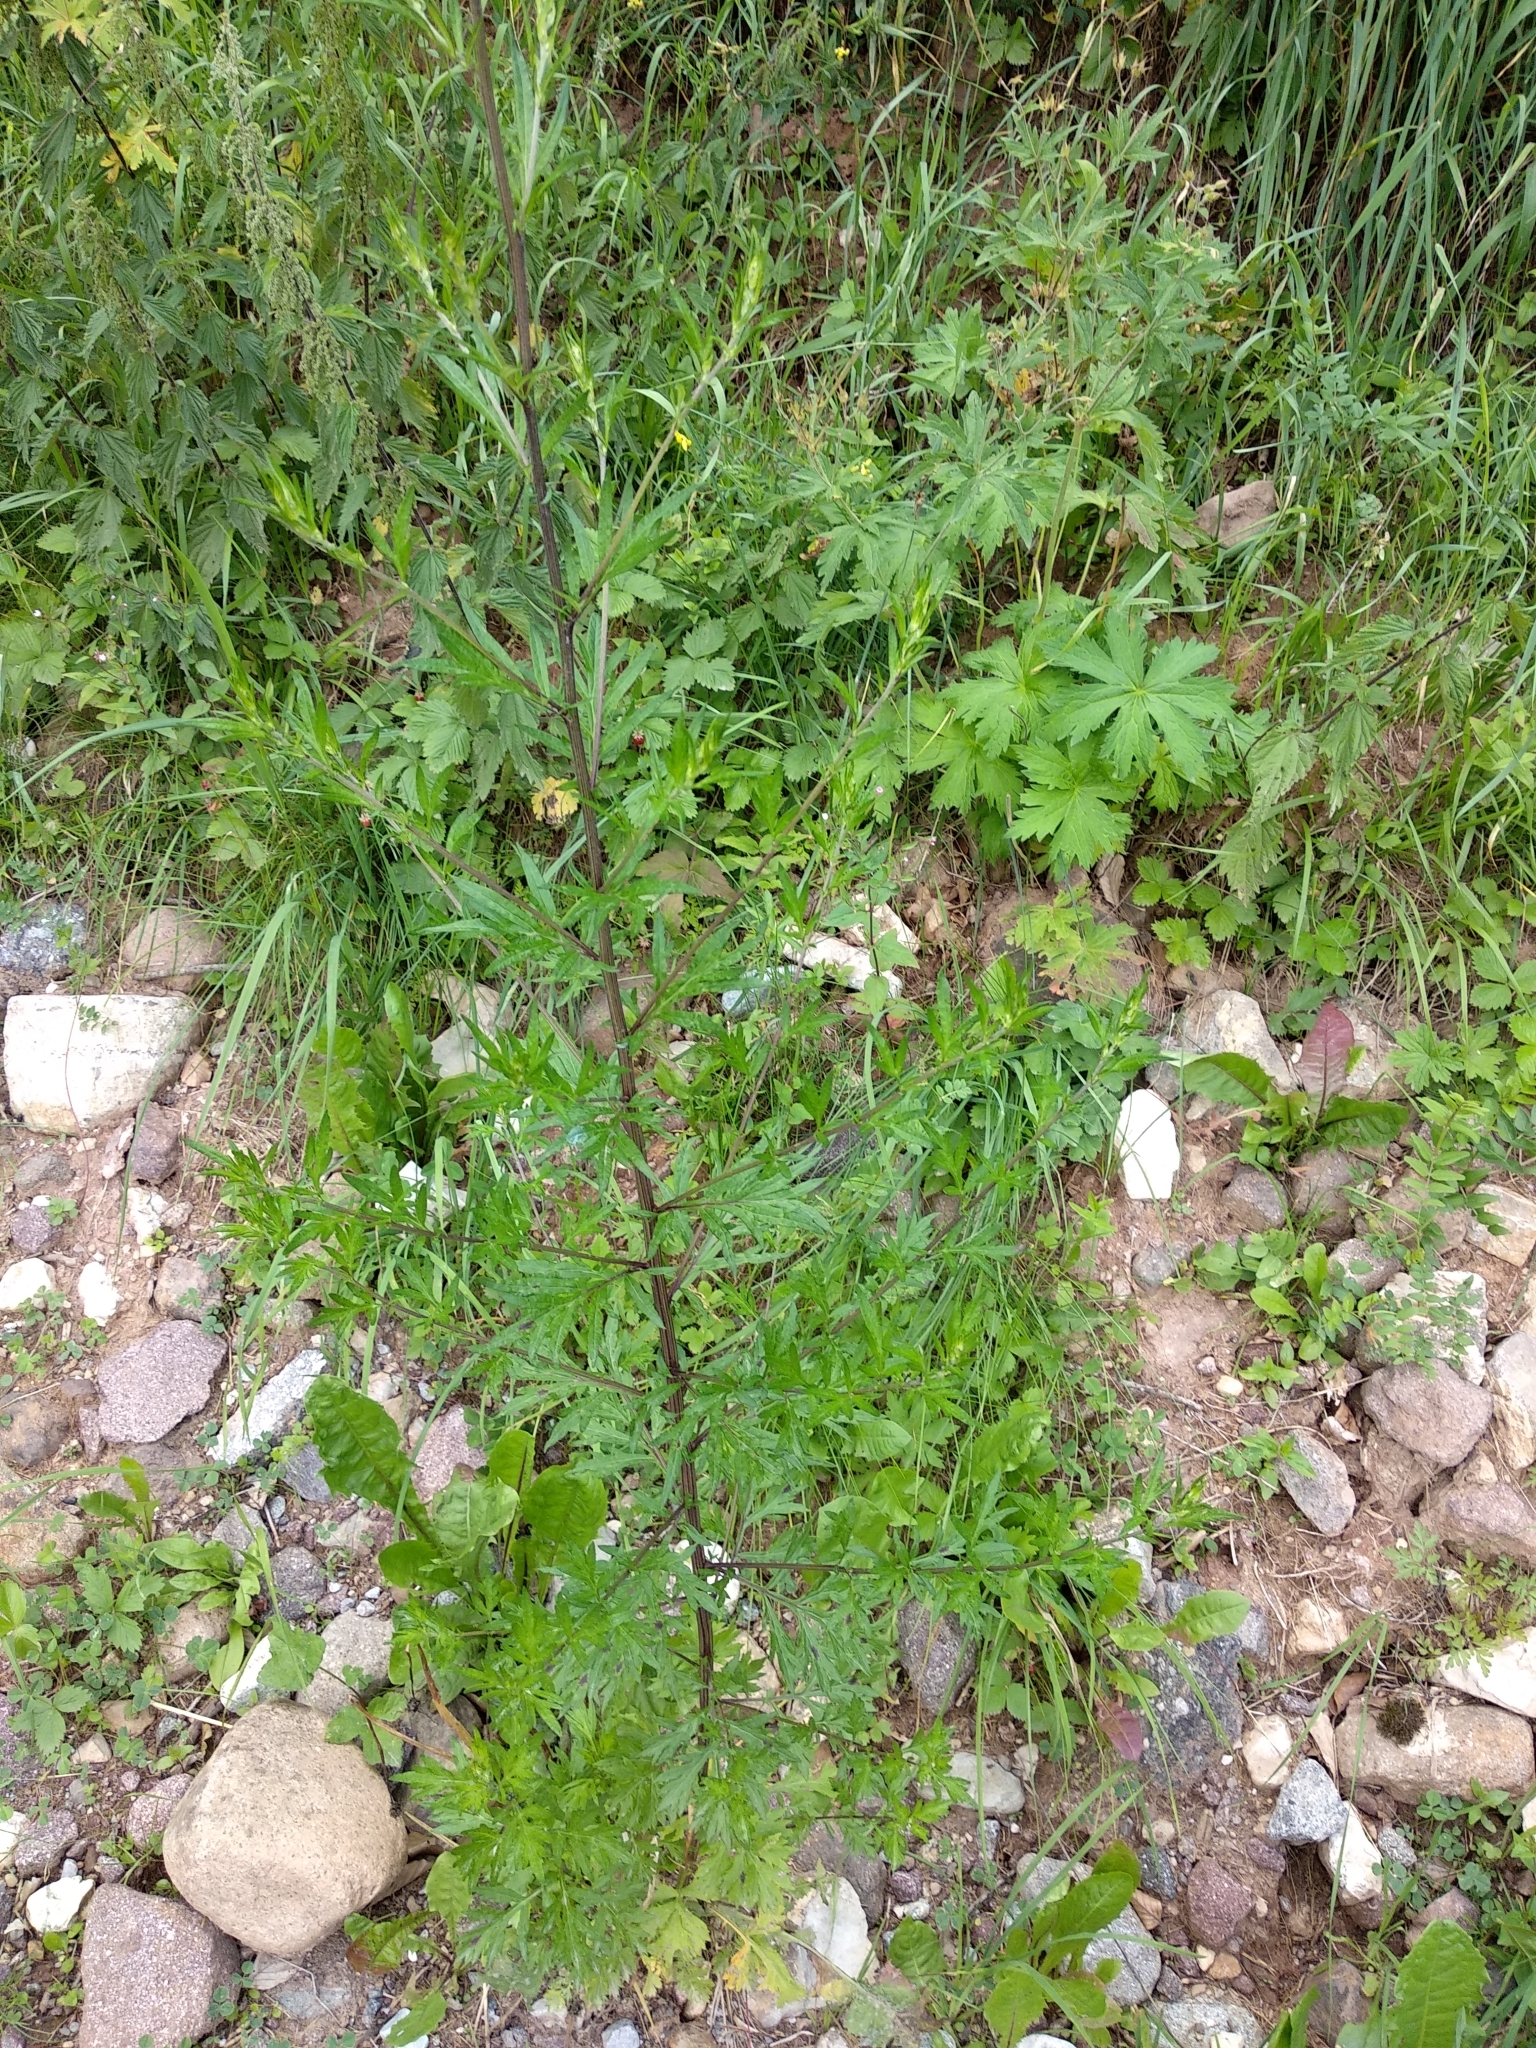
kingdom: Plantae
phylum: Tracheophyta
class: Magnoliopsida
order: Asterales
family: Asteraceae
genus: Artemisia
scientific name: Artemisia vulgaris
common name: Mugwort
